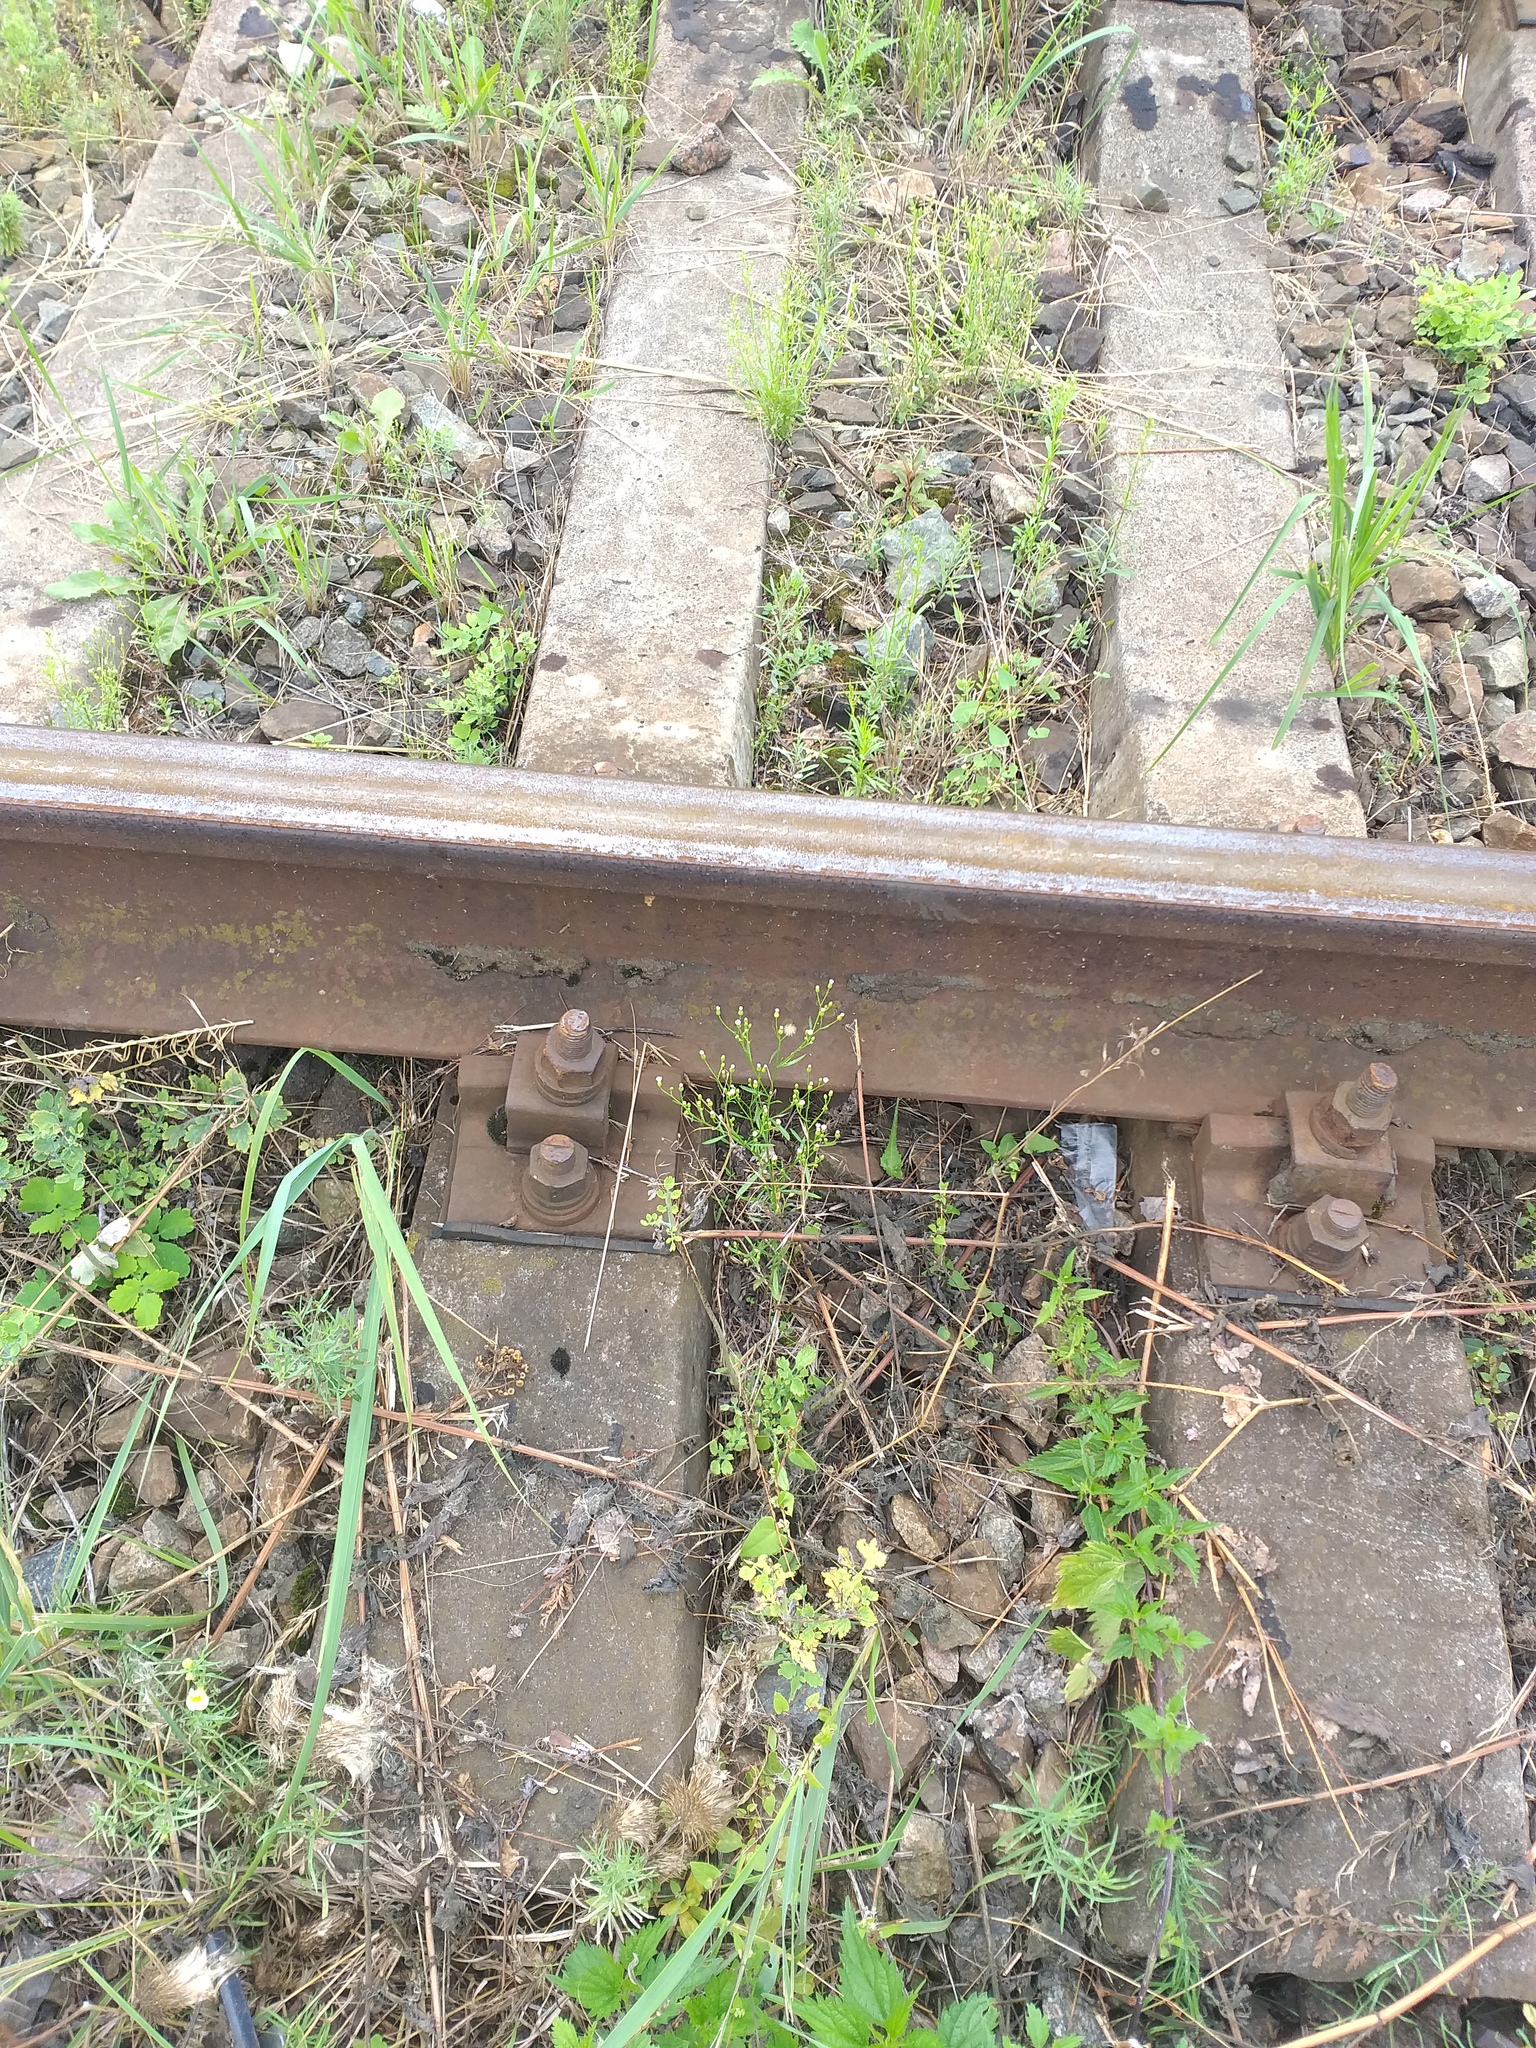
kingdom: Plantae
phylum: Tracheophyta
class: Magnoliopsida
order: Asterales
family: Asteraceae
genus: Erigeron
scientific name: Erigeron canadensis
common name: Canadian fleabane
